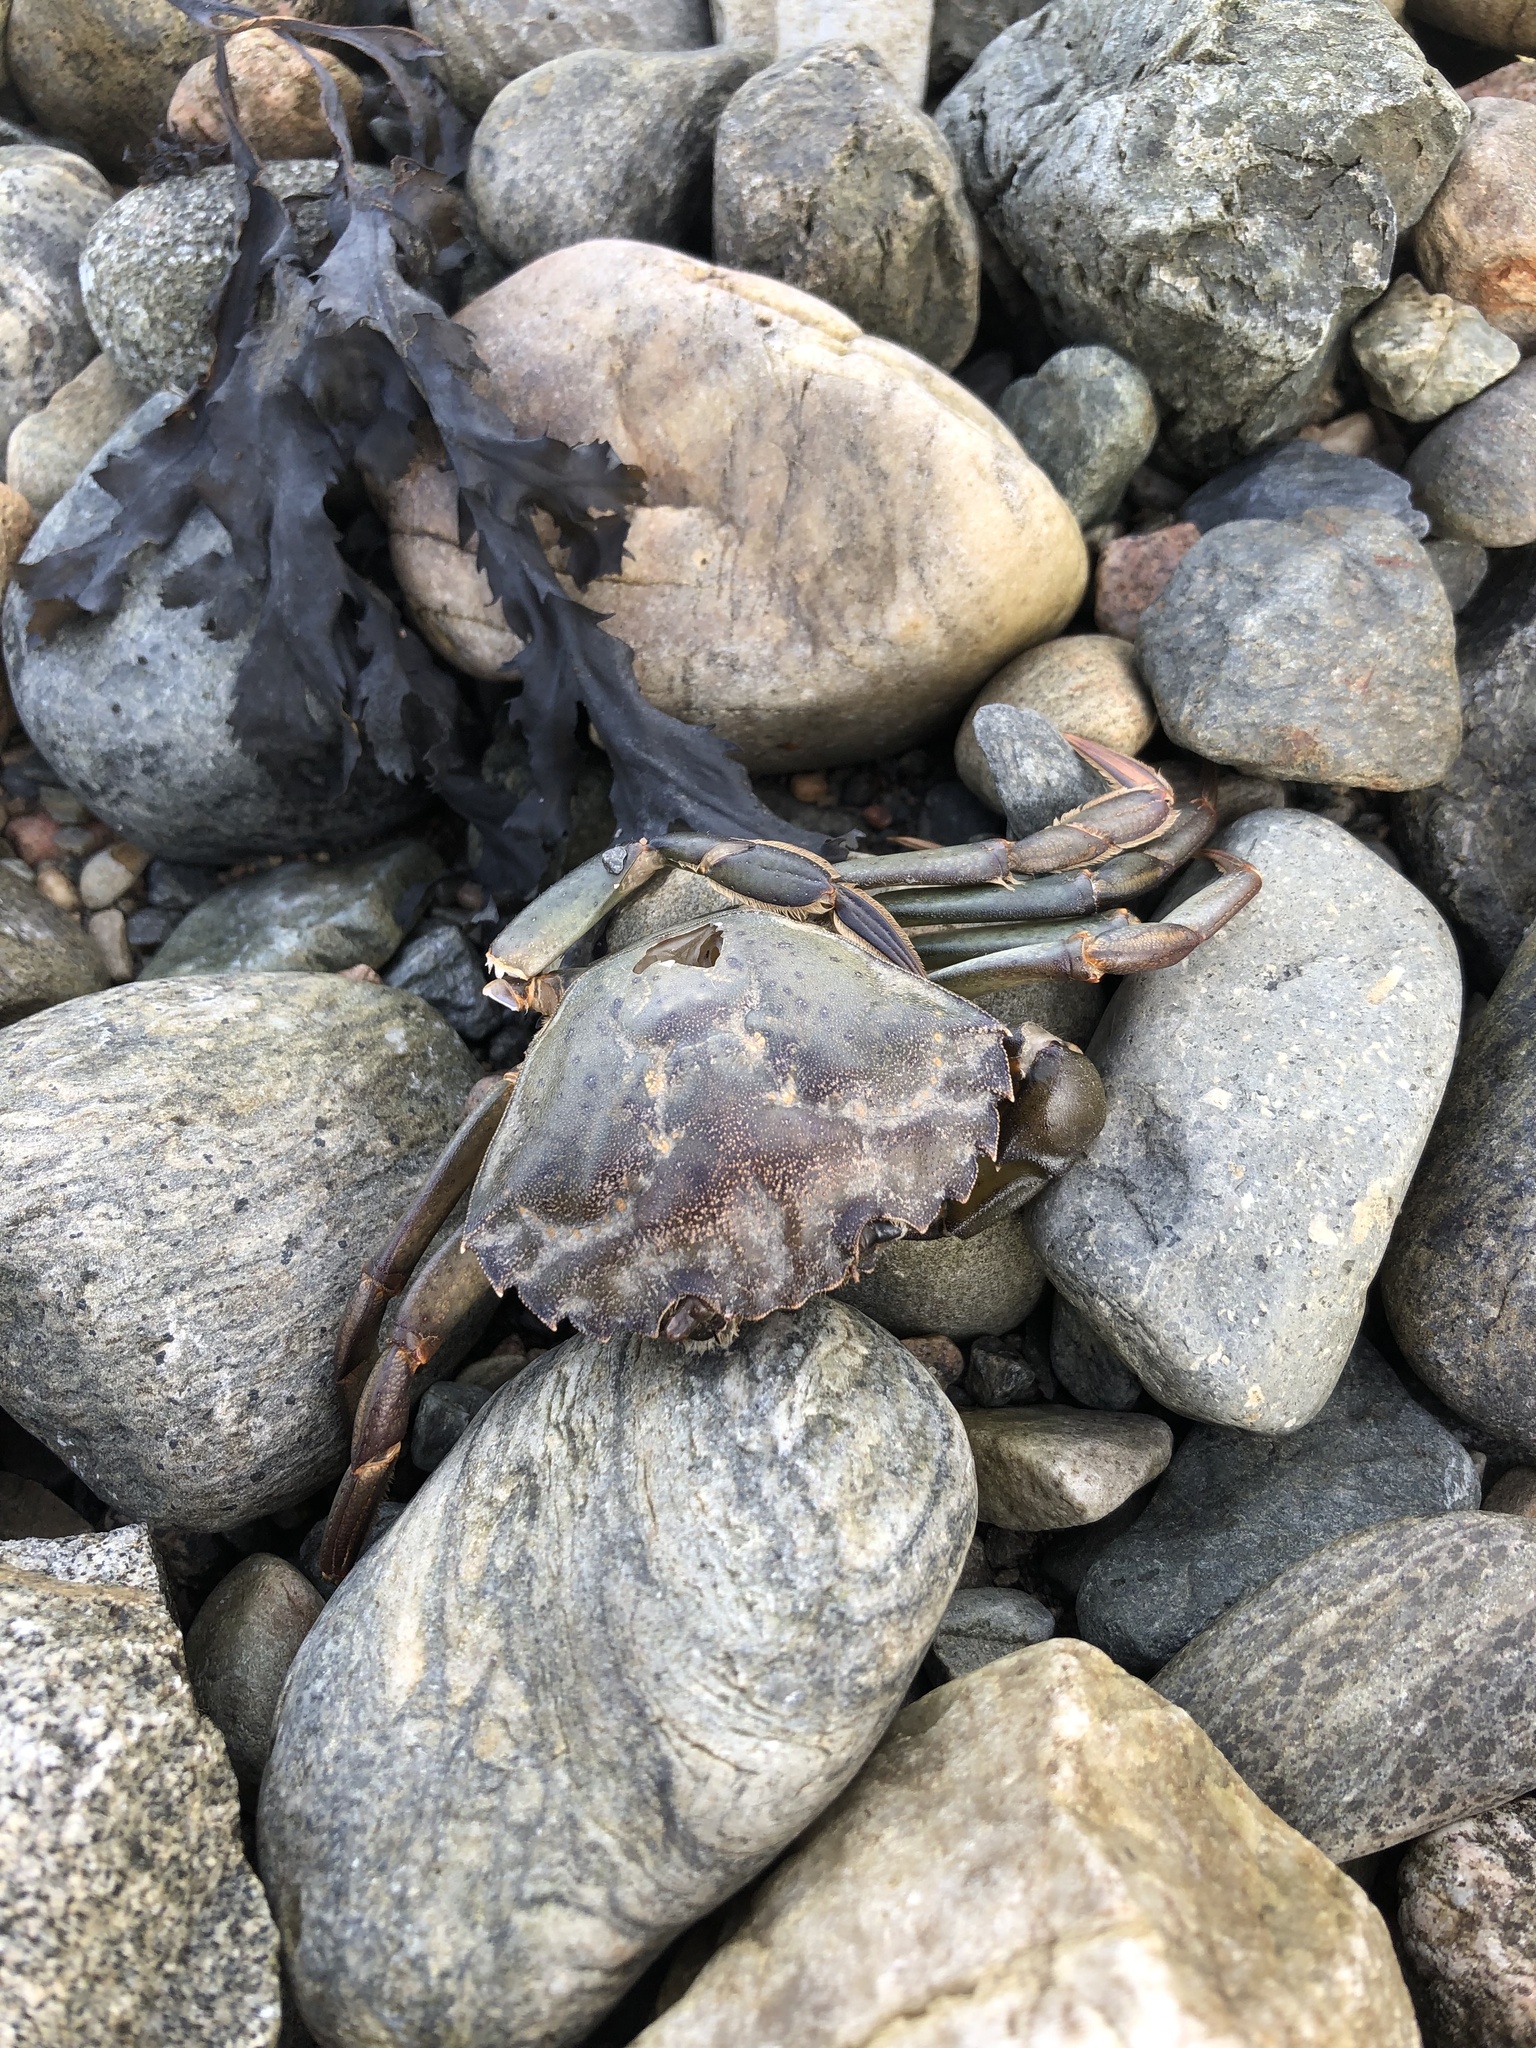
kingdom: Animalia
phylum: Arthropoda
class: Malacostraca
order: Decapoda
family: Carcinidae
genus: Carcinus
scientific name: Carcinus maenas
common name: European green crab
